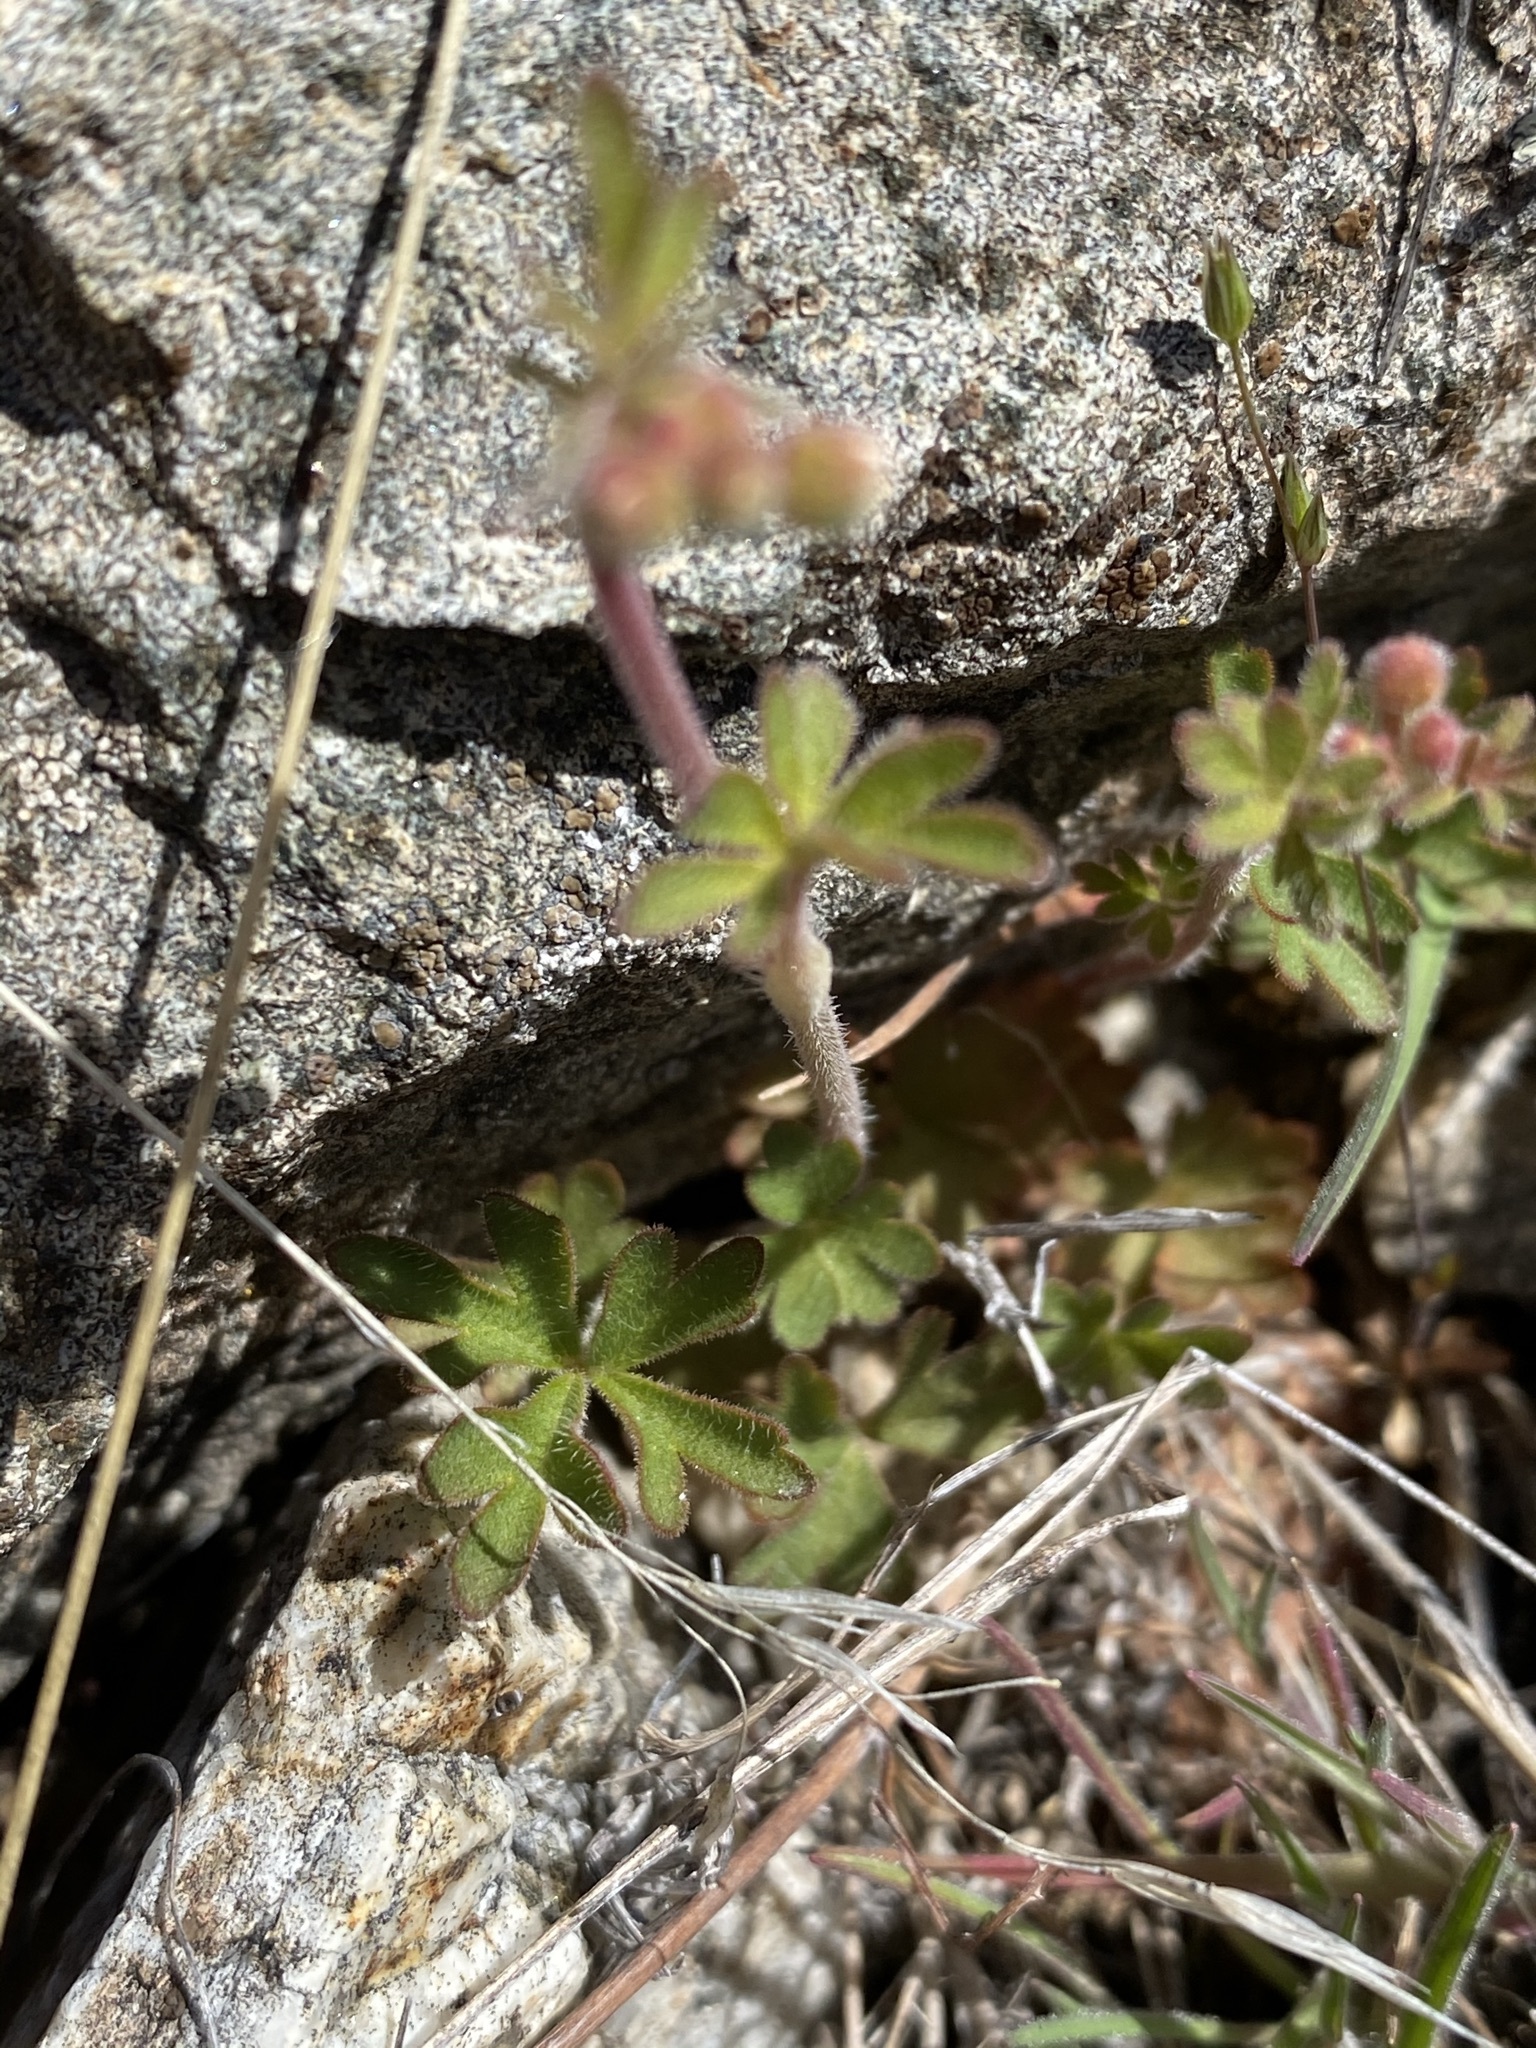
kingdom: Plantae
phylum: Tracheophyta
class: Magnoliopsida
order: Saxifragales
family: Saxifragaceae
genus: Lithophragma
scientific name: Lithophragma tenella
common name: Slender fringe-cup
